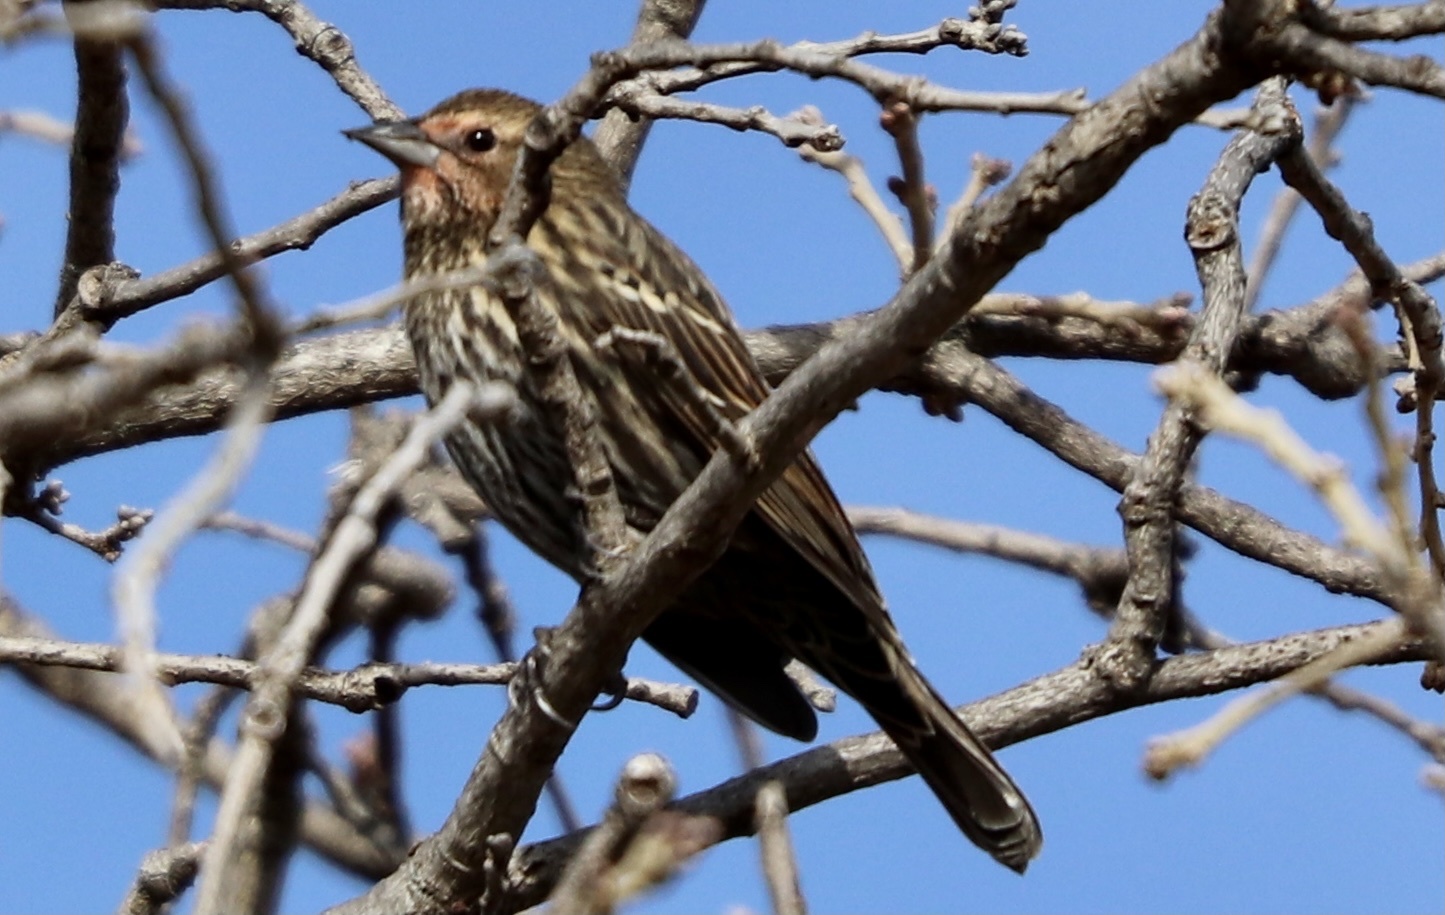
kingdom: Animalia
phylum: Chordata
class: Aves
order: Passeriformes
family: Icteridae
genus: Agelaius
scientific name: Agelaius phoeniceus
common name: Red-winged blackbird
